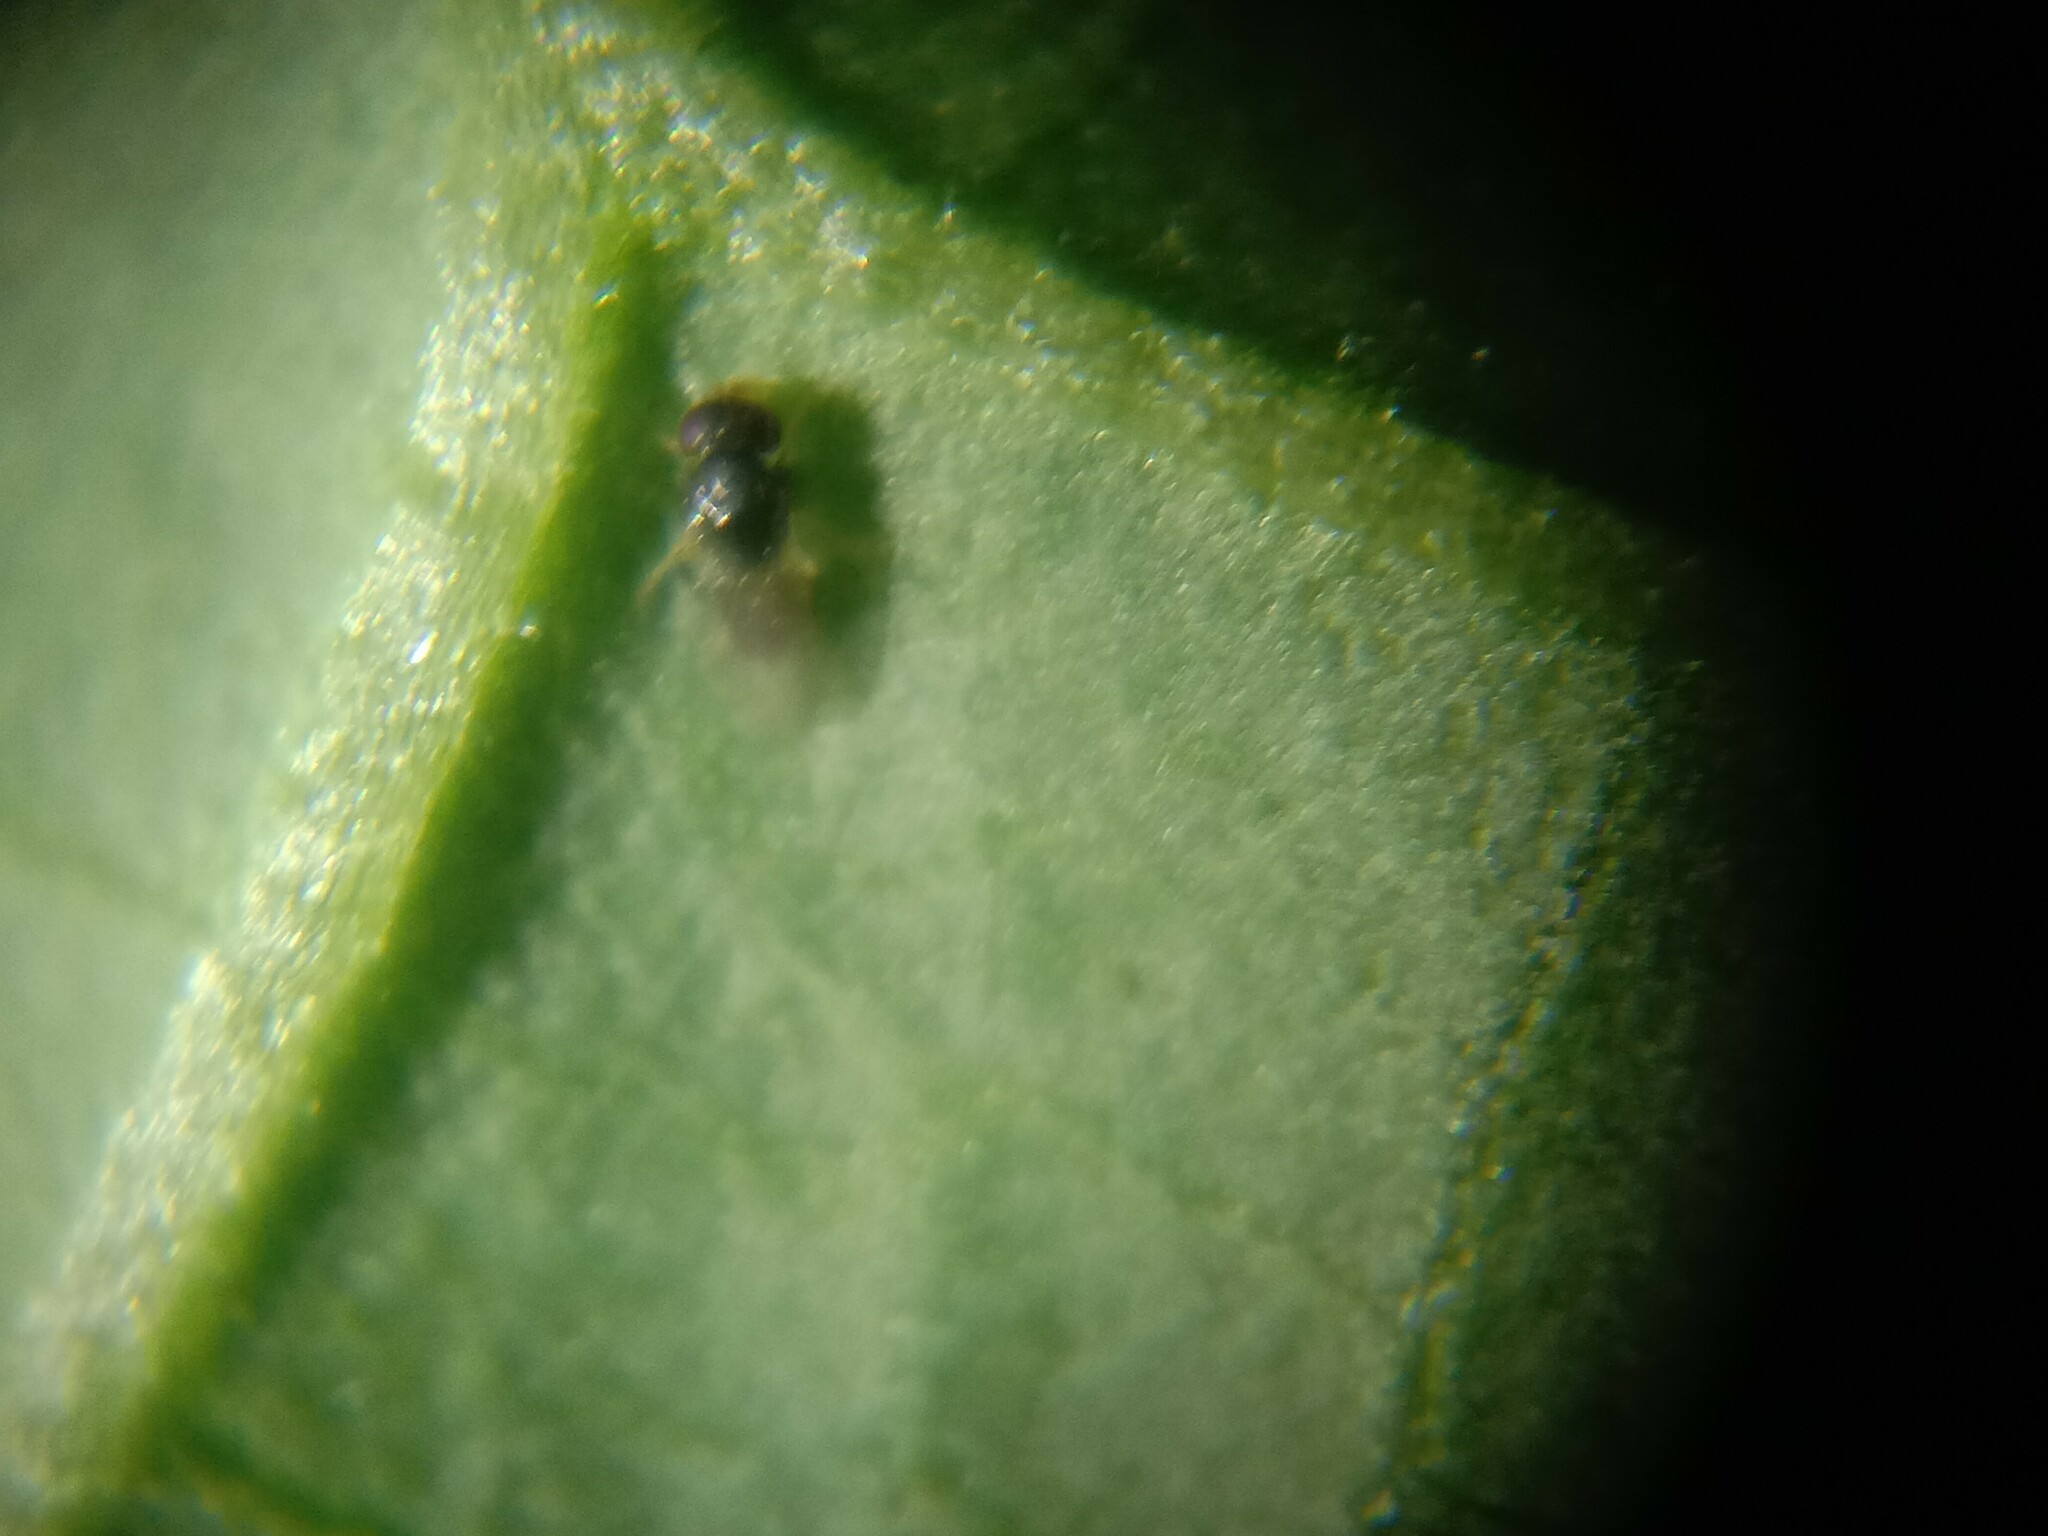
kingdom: Animalia
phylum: Arthropoda
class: Insecta
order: Hymenoptera
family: Eulophidae
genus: Tamarixia
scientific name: Tamarixia radiata
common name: Parasitoid wasp
